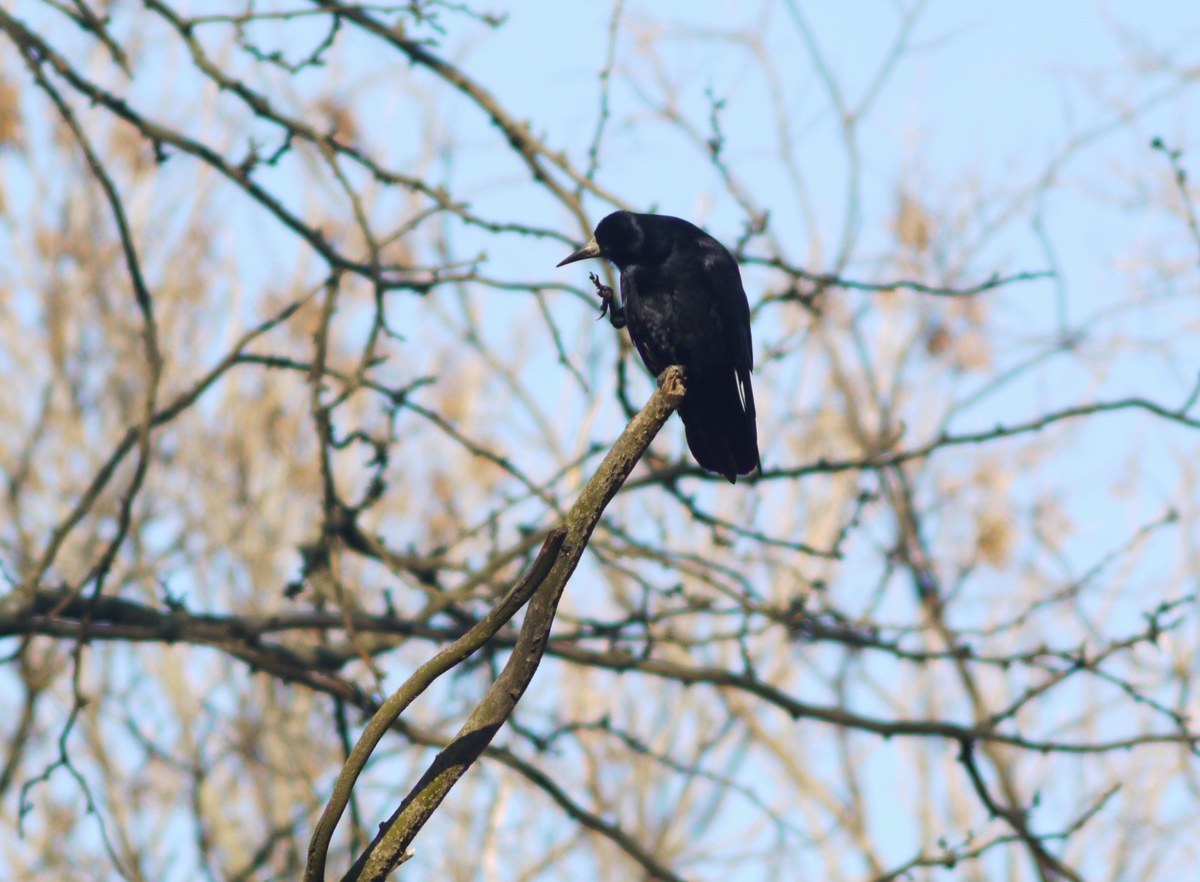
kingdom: Animalia
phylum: Chordata
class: Aves
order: Passeriformes
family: Corvidae
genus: Corvus
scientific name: Corvus frugilegus
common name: Rook
